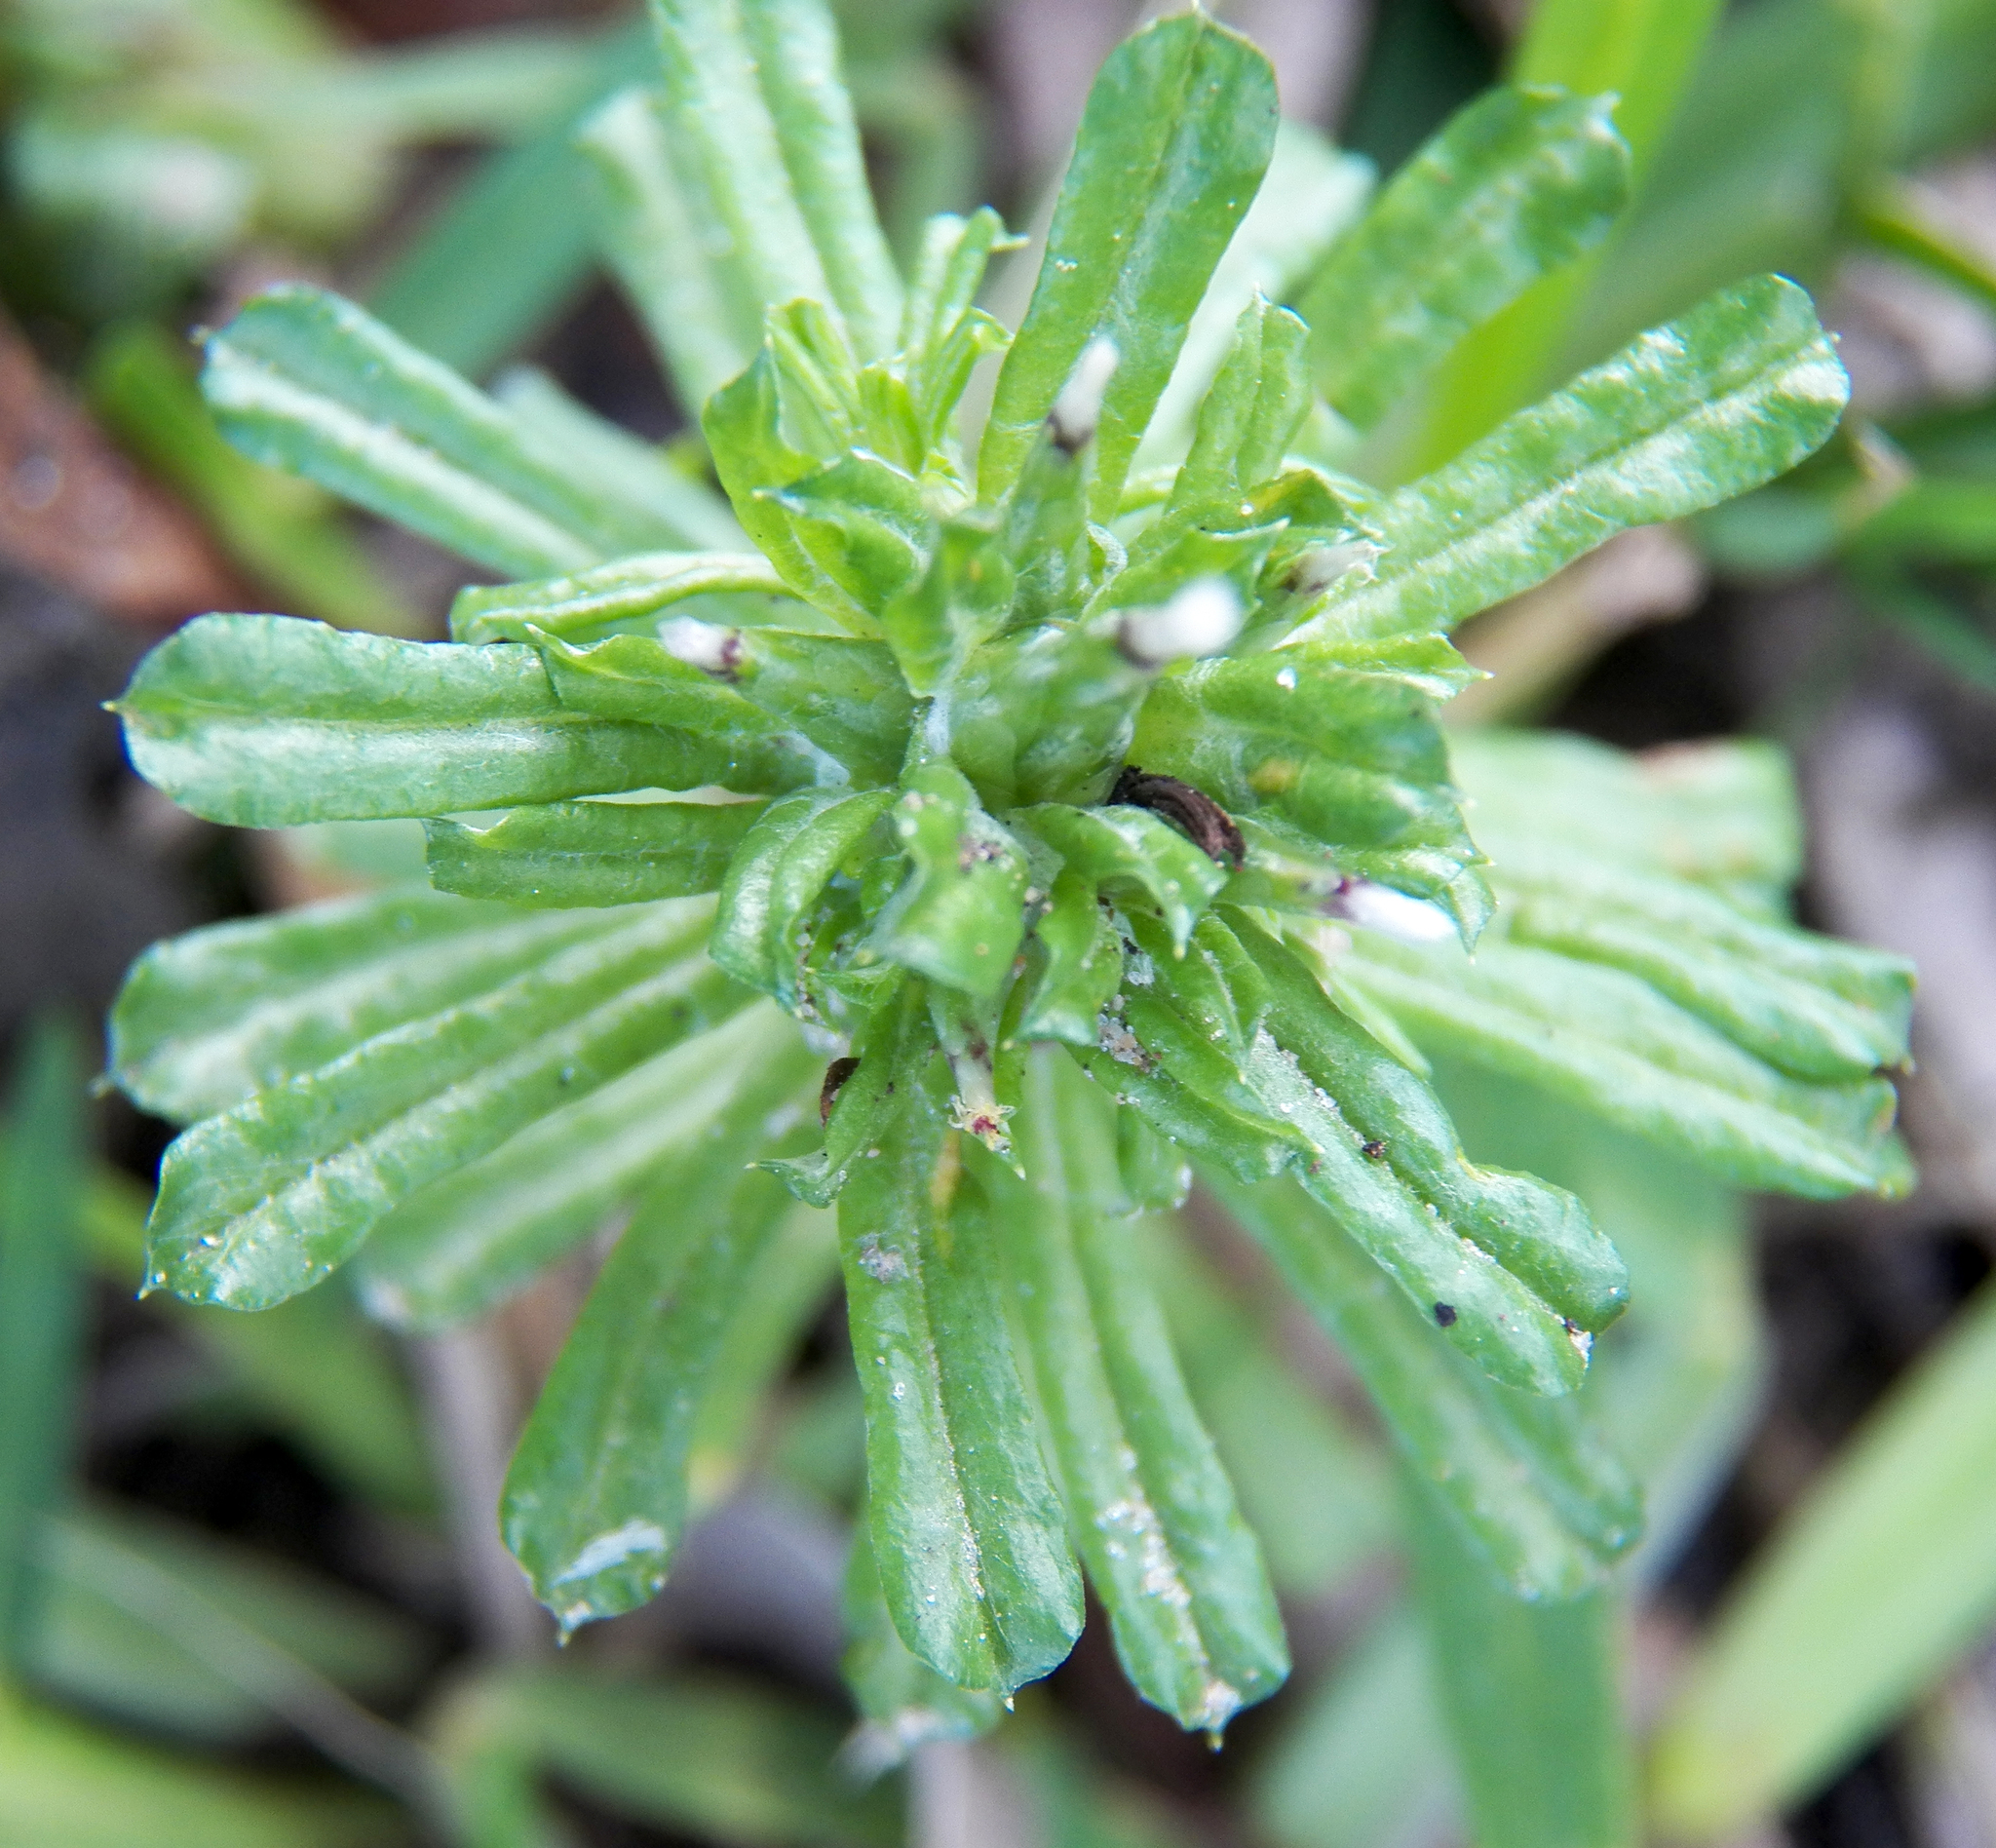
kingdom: Plantae
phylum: Tracheophyta
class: Magnoliopsida
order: Asterales
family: Asteraceae
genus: Facelis
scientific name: Facelis retusa
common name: Annual trampweed
